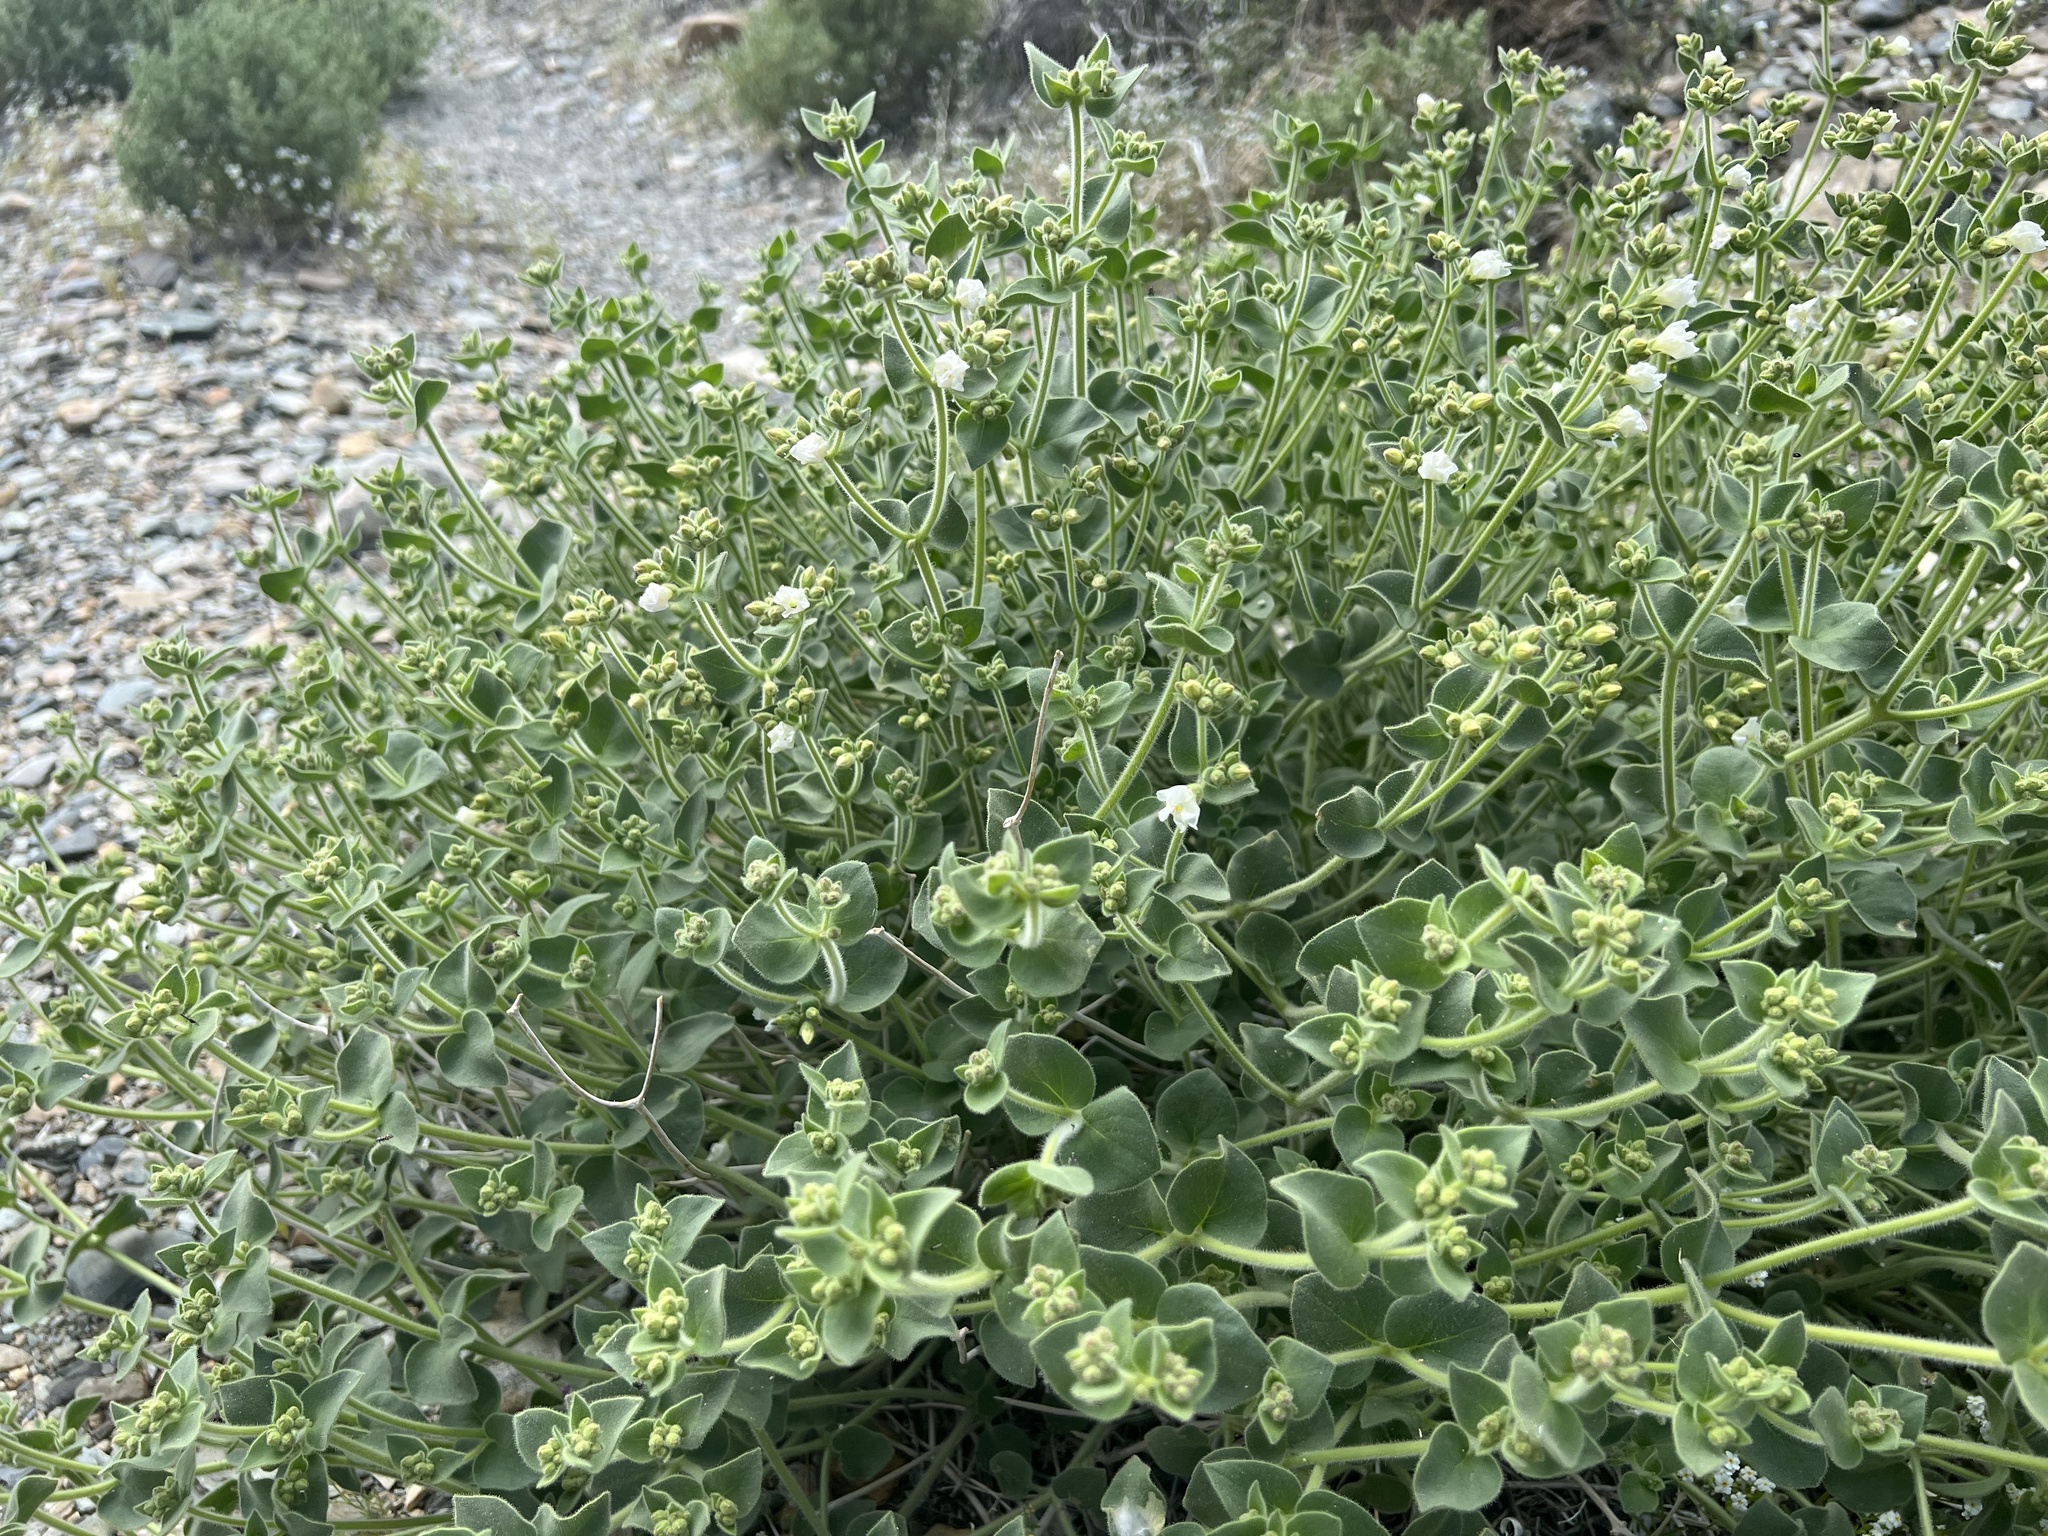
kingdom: Plantae
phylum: Tracheophyta
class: Magnoliopsida
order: Caryophyllales
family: Nyctaginaceae
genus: Mirabilis
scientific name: Mirabilis laevis
